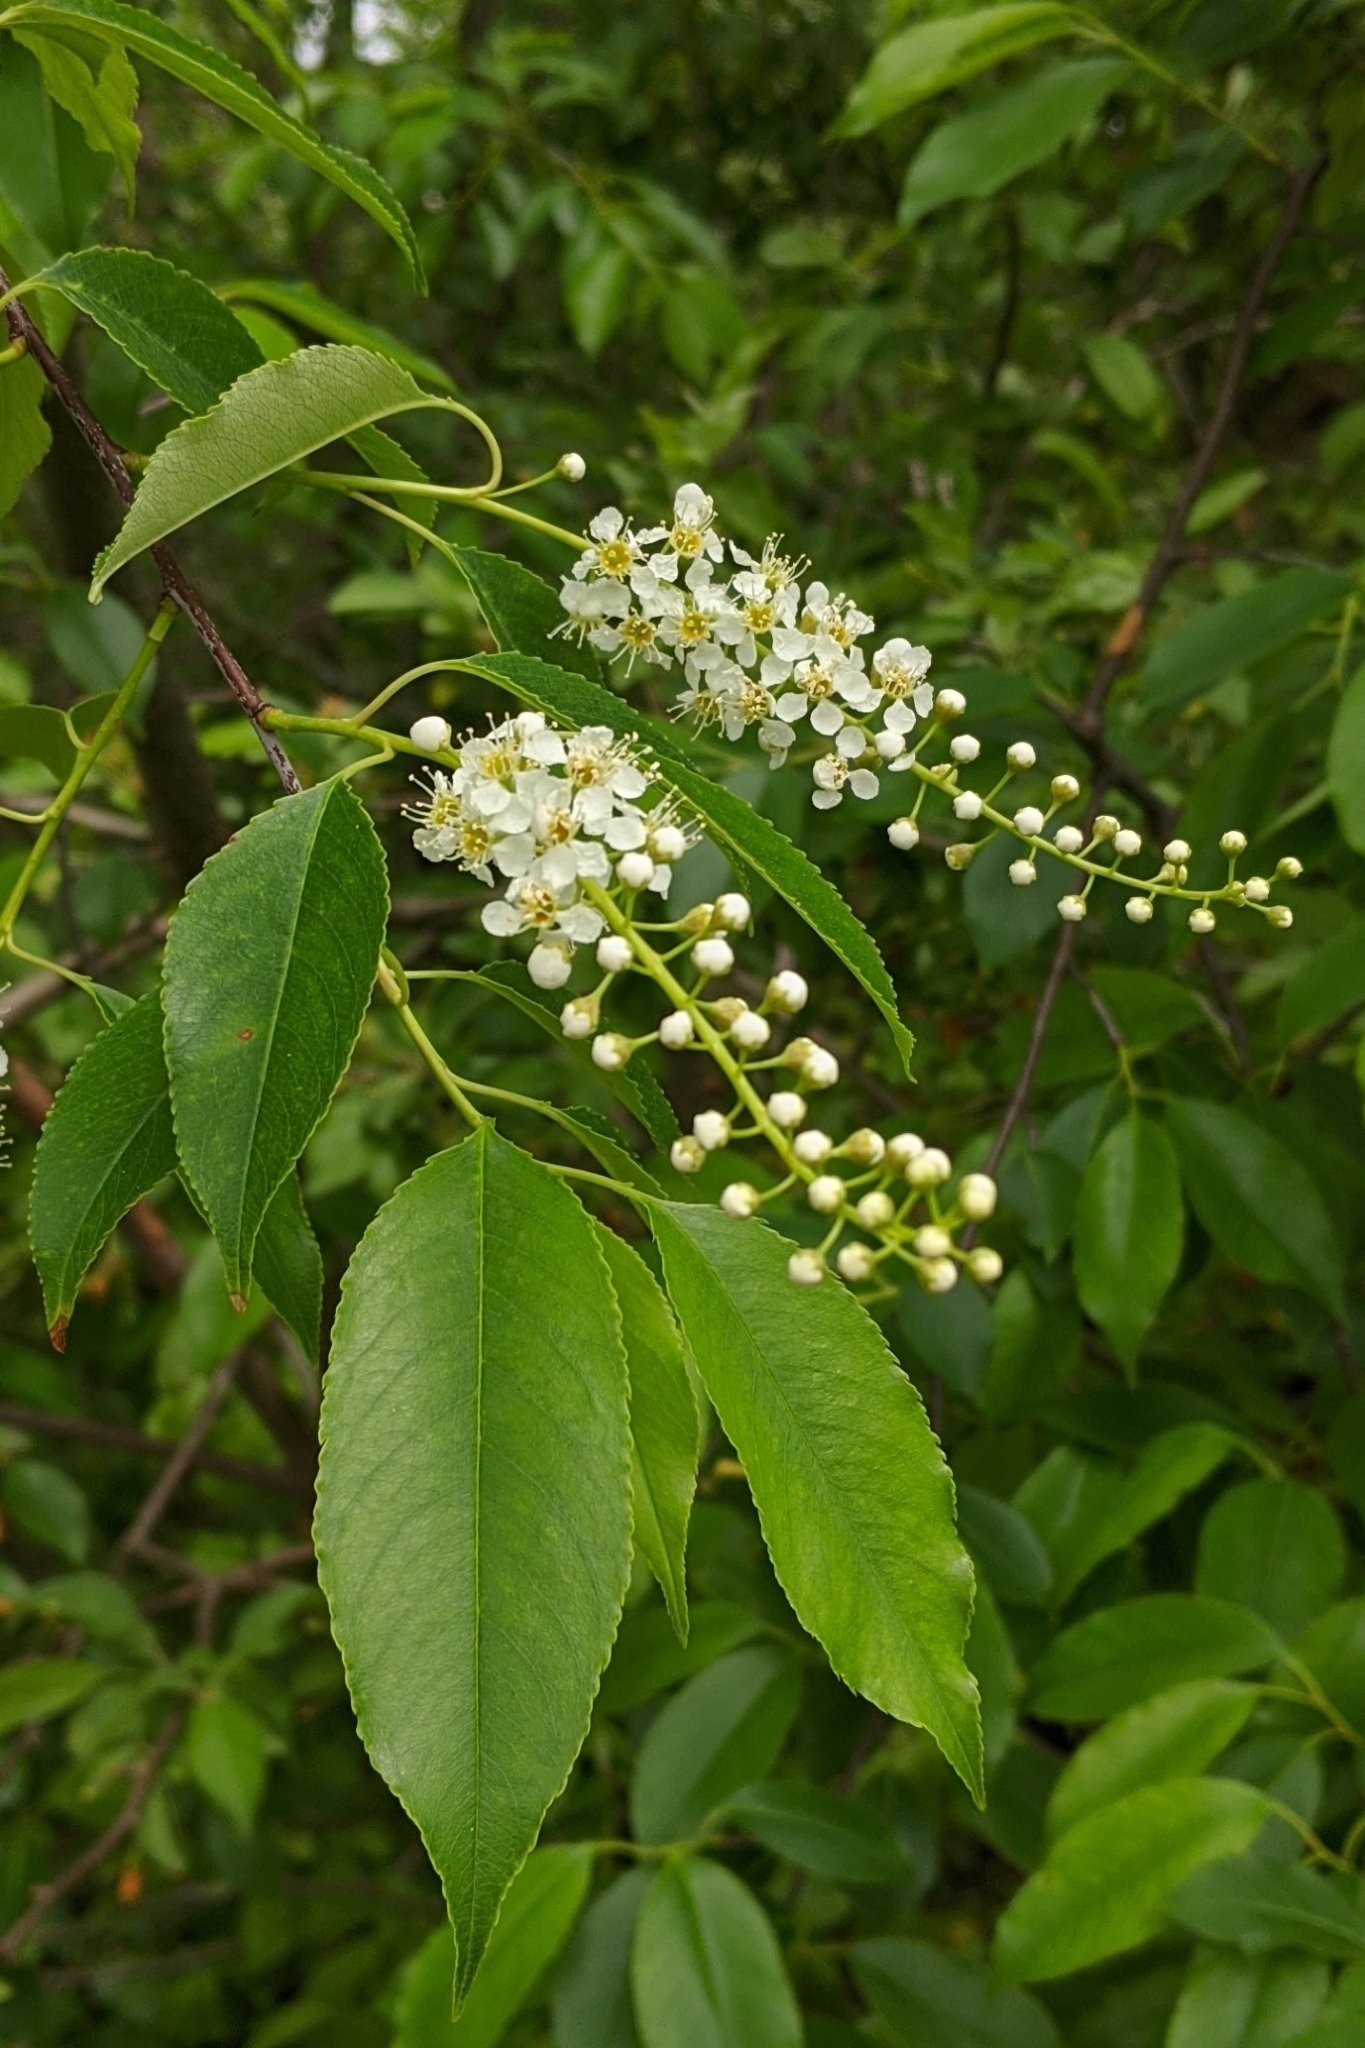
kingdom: Plantae
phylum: Tracheophyta
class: Magnoliopsida
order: Rosales
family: Rosaceae
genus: Prunus
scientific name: Prunus serotina
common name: Black cherry
